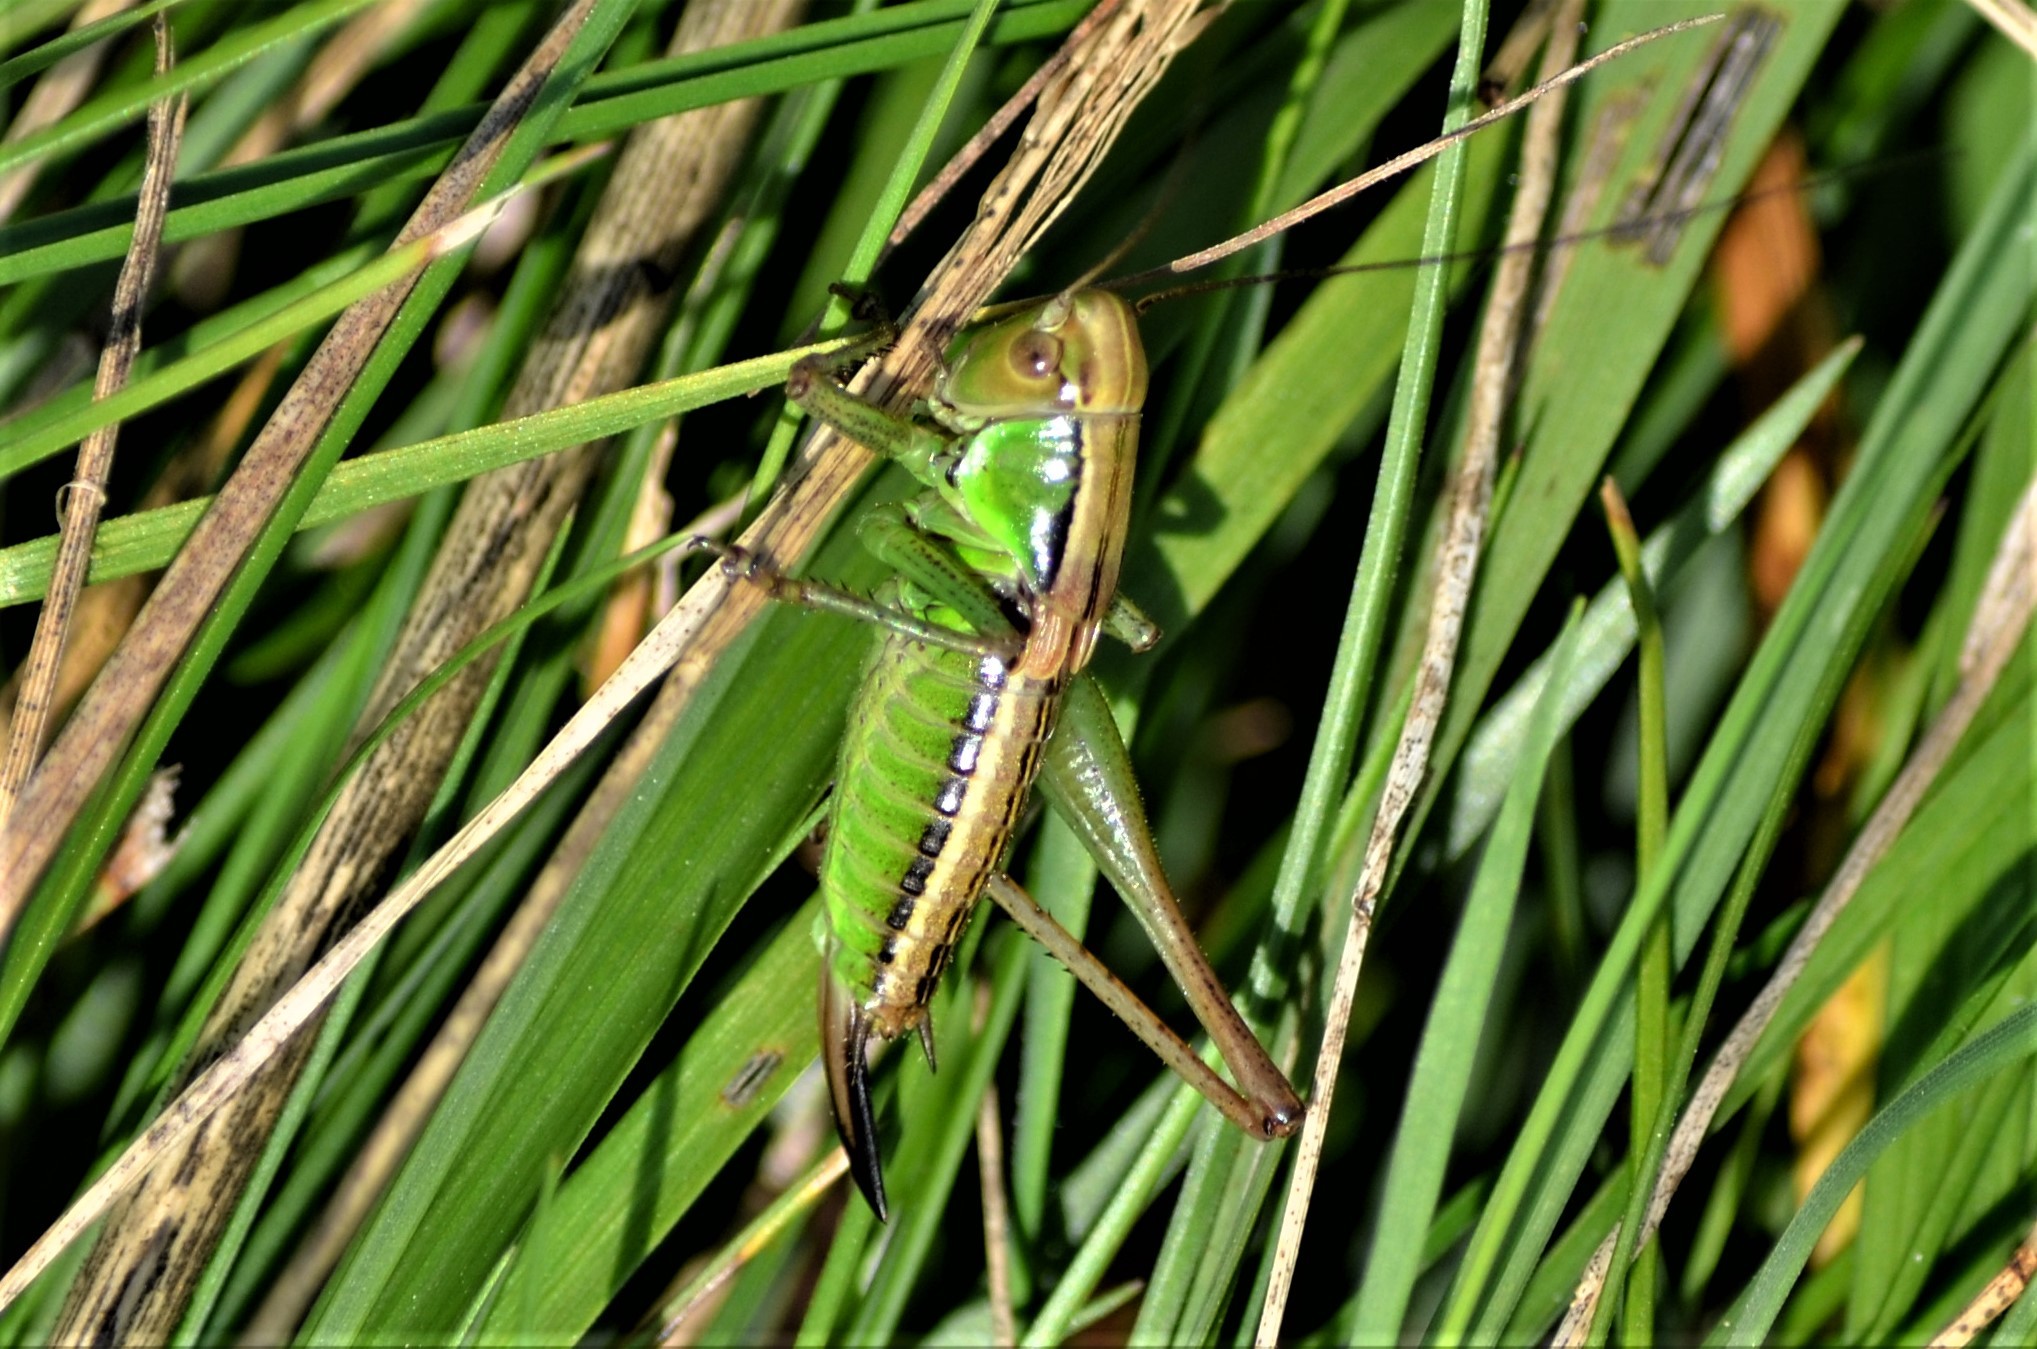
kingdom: Animalia
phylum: Arthropoda
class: Insecta
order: Orthoptera
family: Tettigoniidae
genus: Roeseliana
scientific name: Roeseliana roeselii
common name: Roesel's bush cricket
